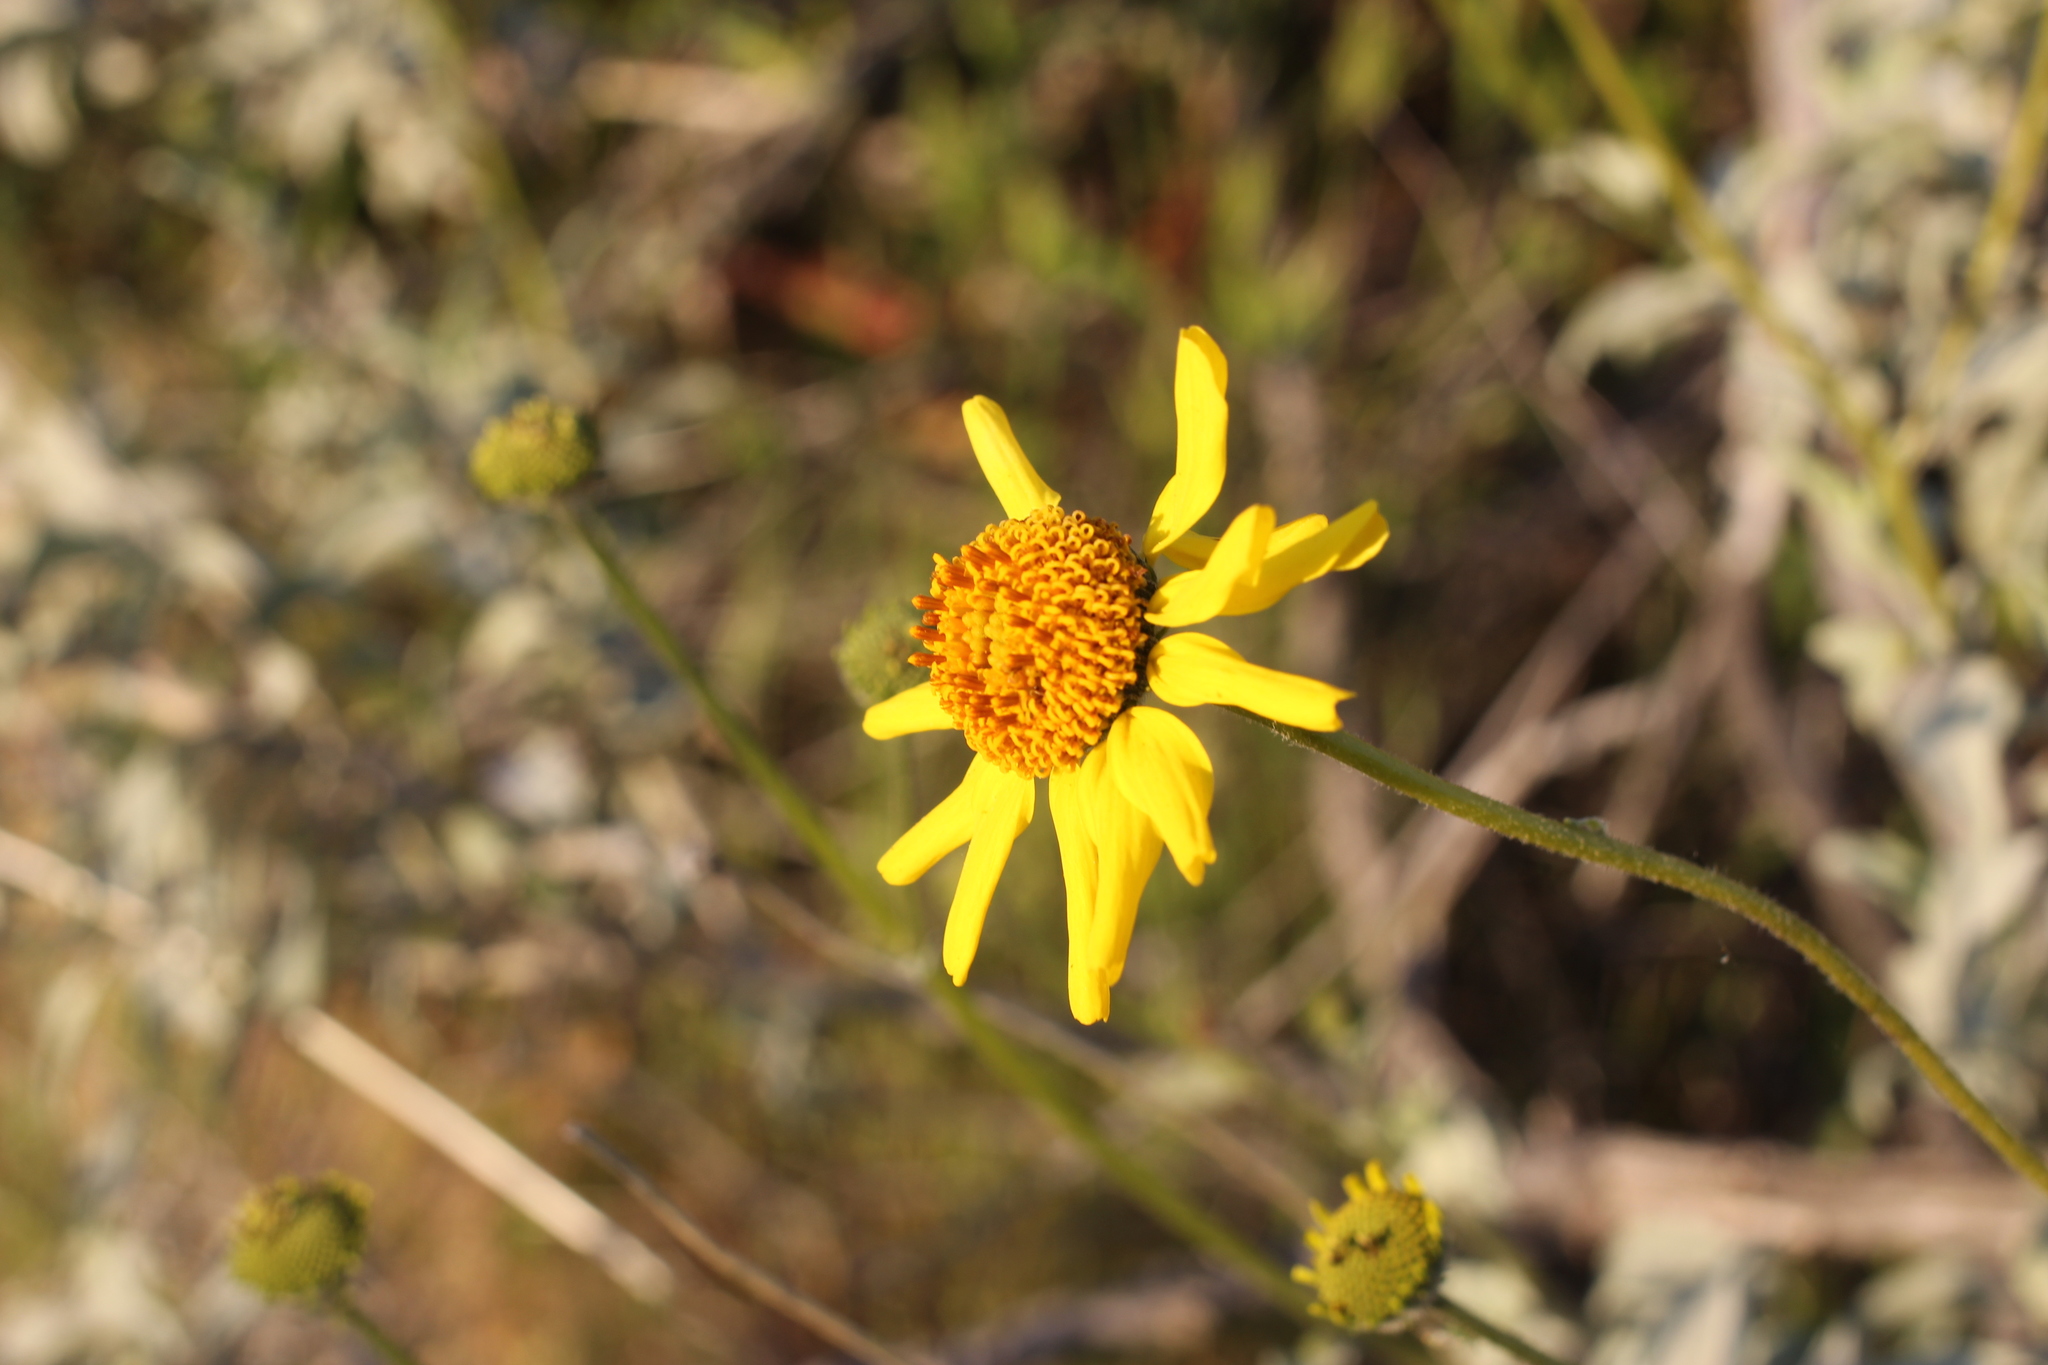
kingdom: Plantae
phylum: Tracheophyta
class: Magnoliopsida
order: Asterales
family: Asteraceae
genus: Encelia
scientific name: Encelia farinosa
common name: Brittlebush
